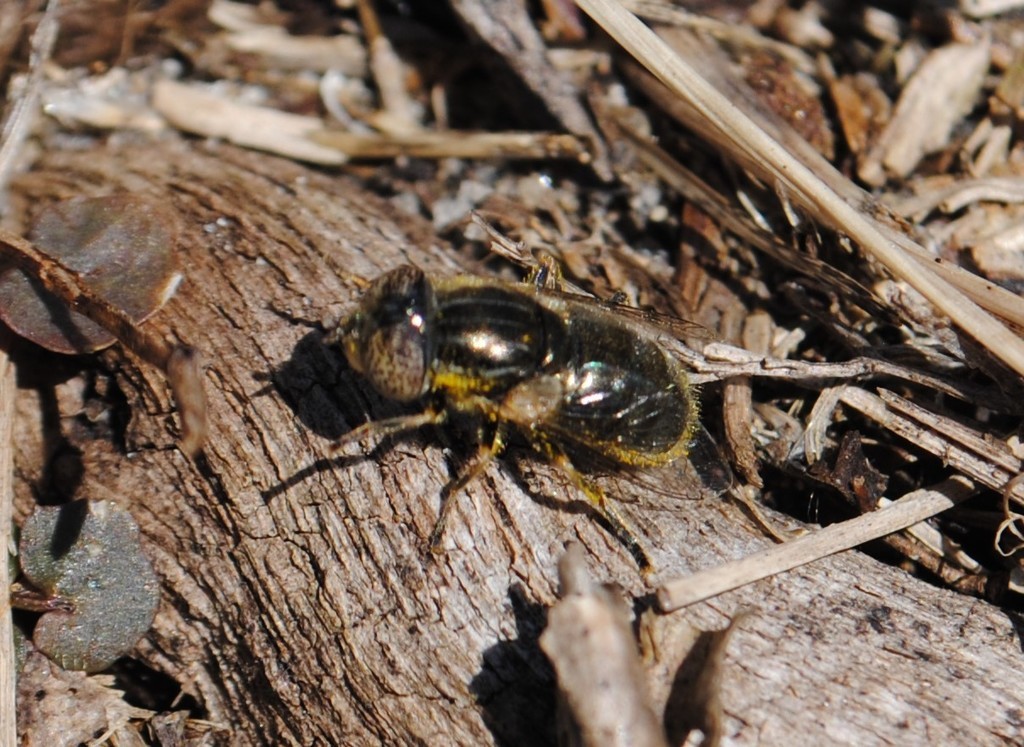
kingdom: Animalia
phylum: Arthropoda
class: Insecta
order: Diptera
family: Syrphidae
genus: Eristalinus
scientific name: Eristalinus aeneus
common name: Syrphid fly
